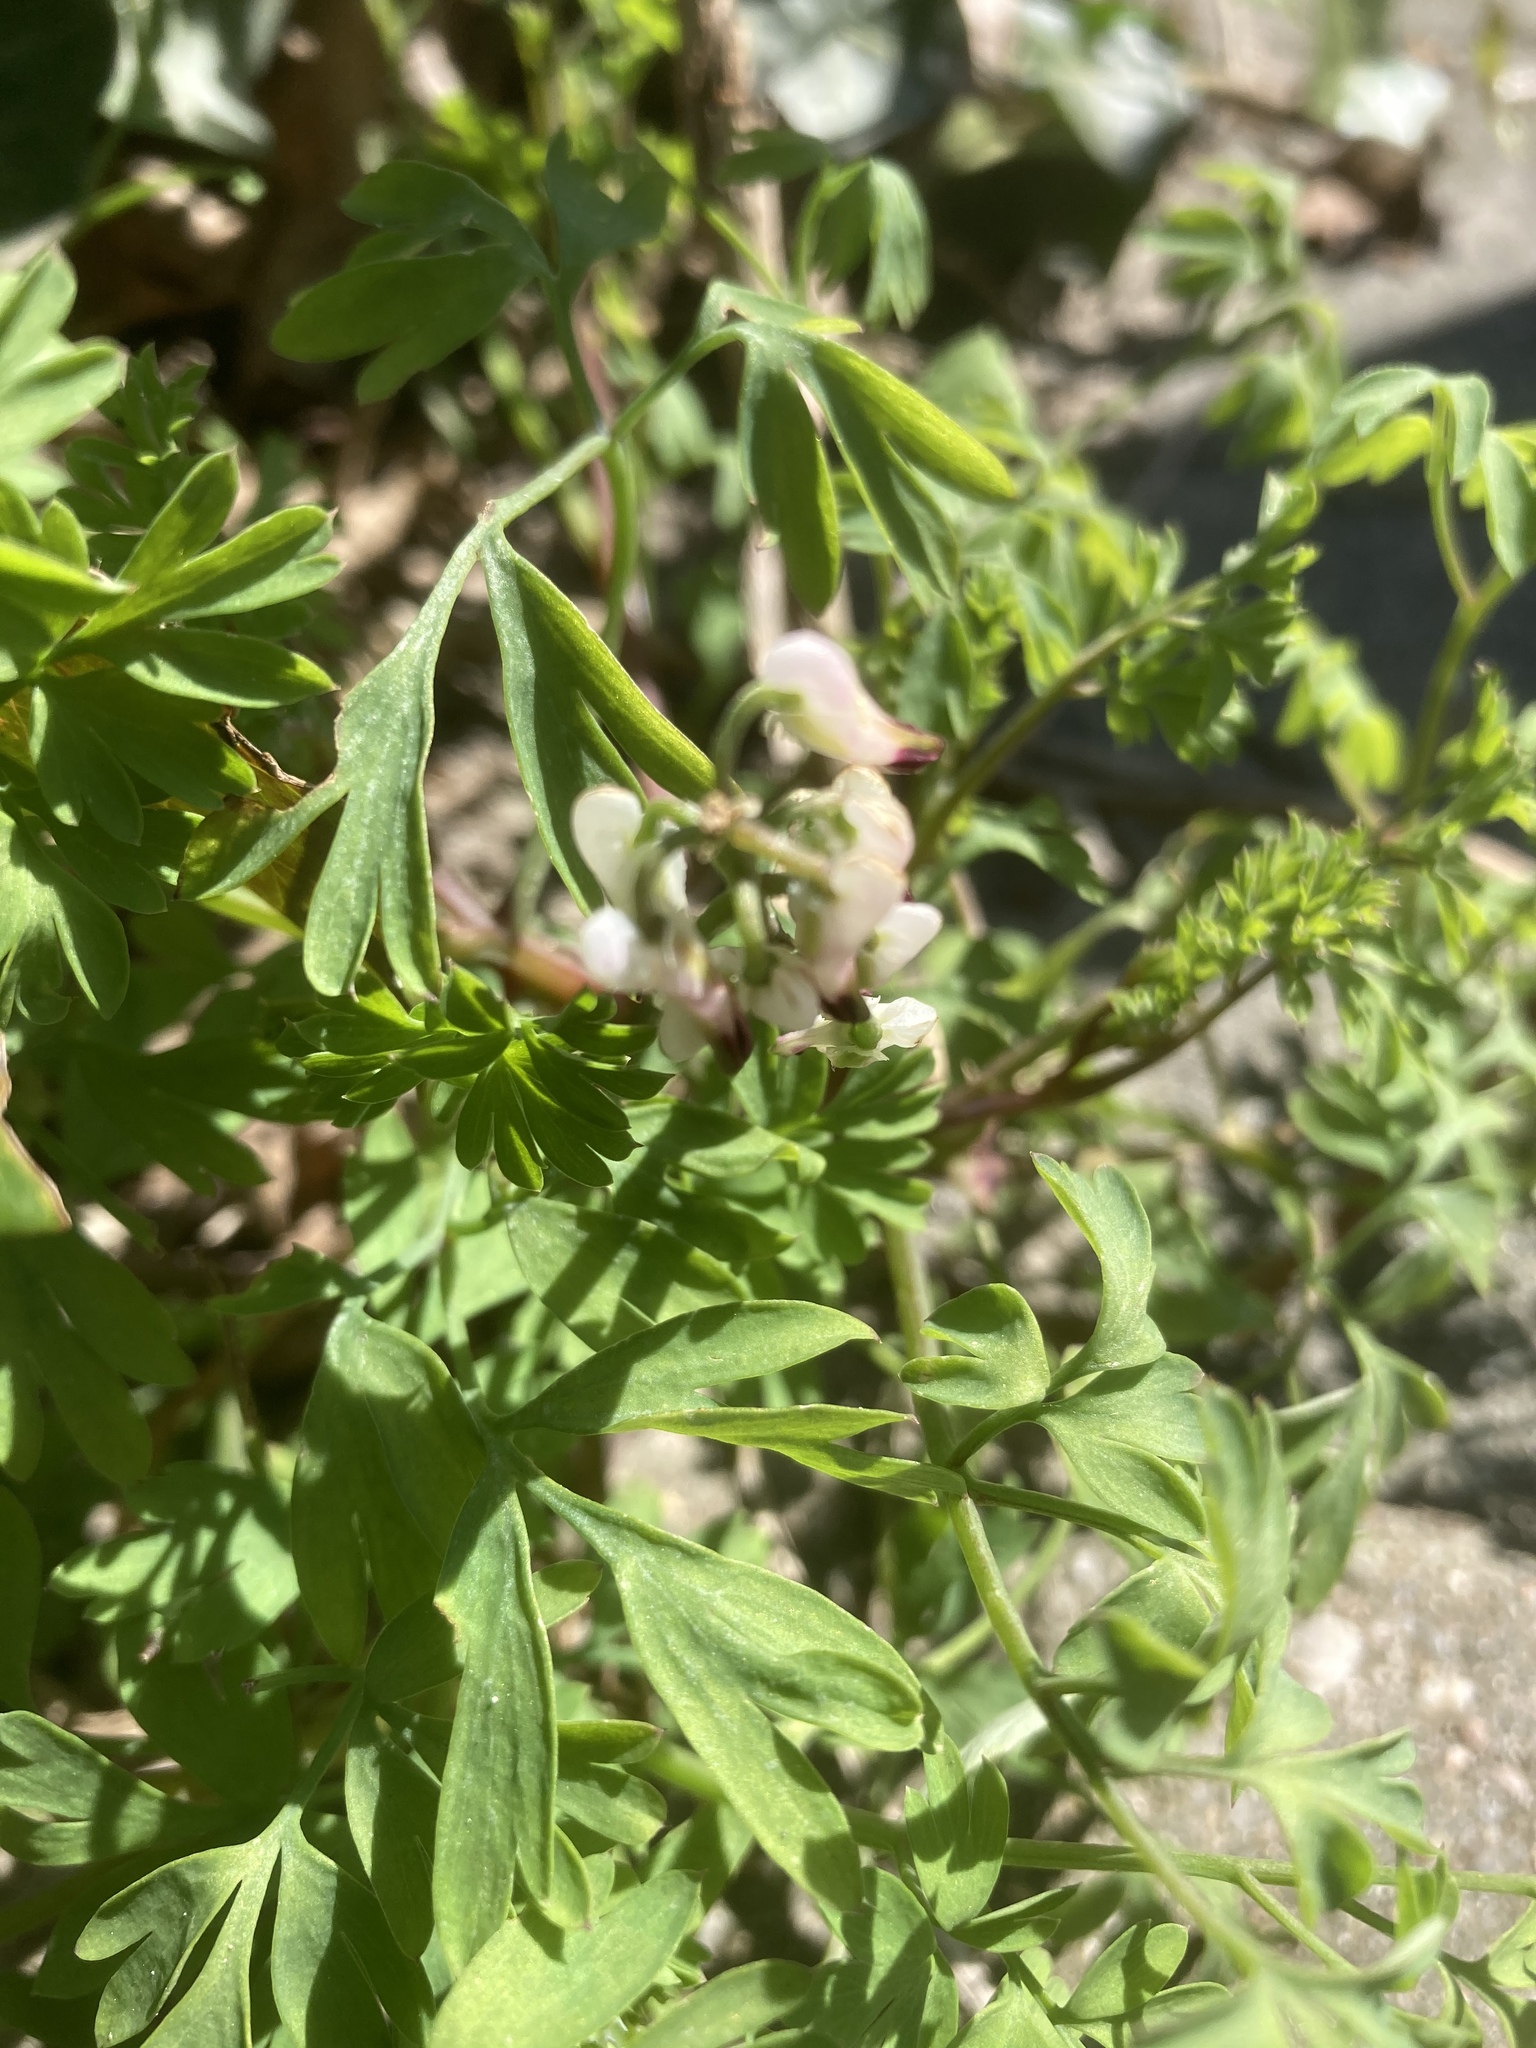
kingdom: Plantae
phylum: Tracheophyta
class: Magnoliopsida
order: Ranunculales
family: Papaveraceae
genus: Fumaria
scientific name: Fumaria capreolata
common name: White ramping-fumitory
